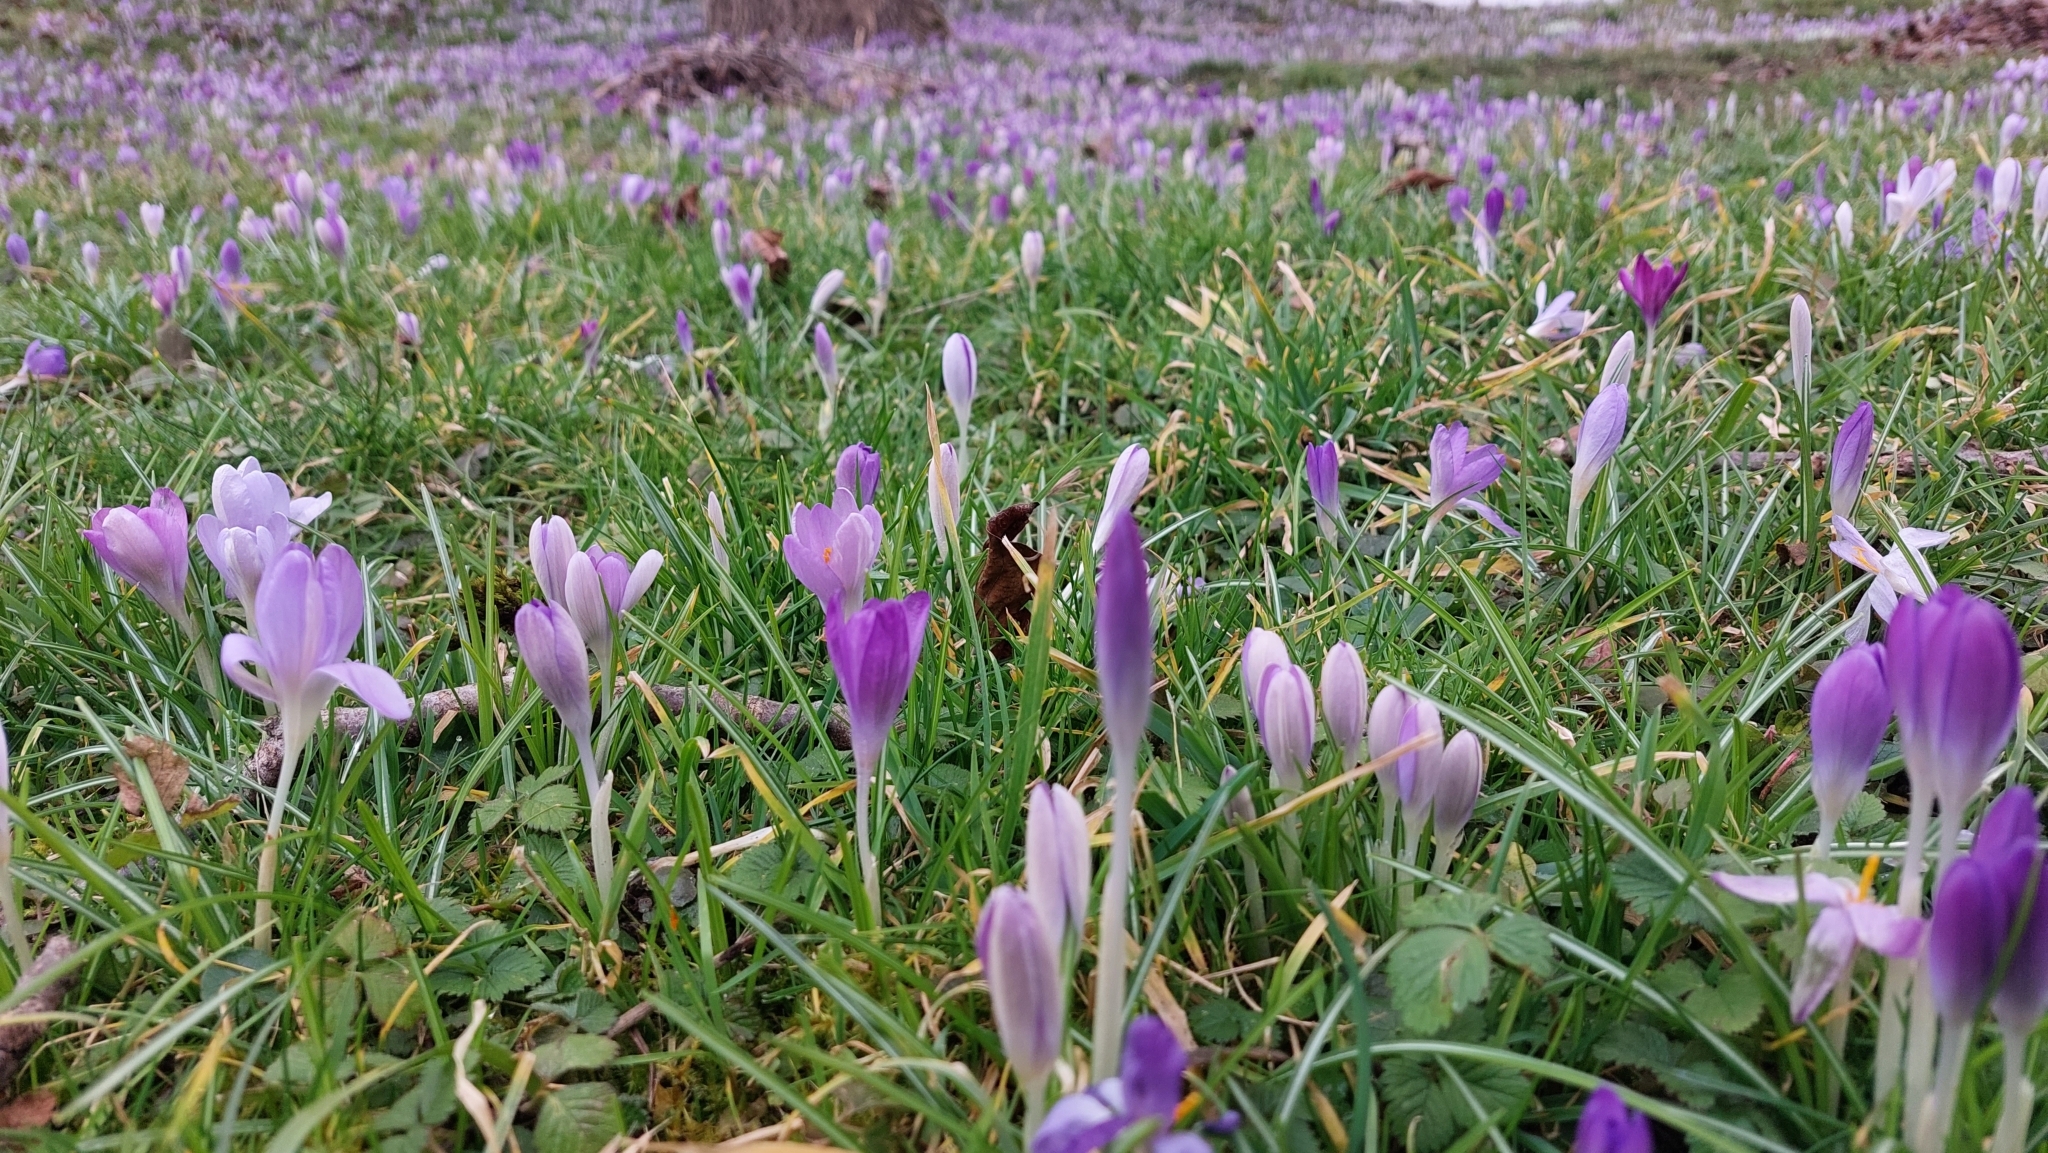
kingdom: Plantae
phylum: Tracheophyta
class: Liliopsida
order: Asparagales
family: Iridaceae
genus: Crocus
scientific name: Crocus tommasinianus
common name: Early crocus
